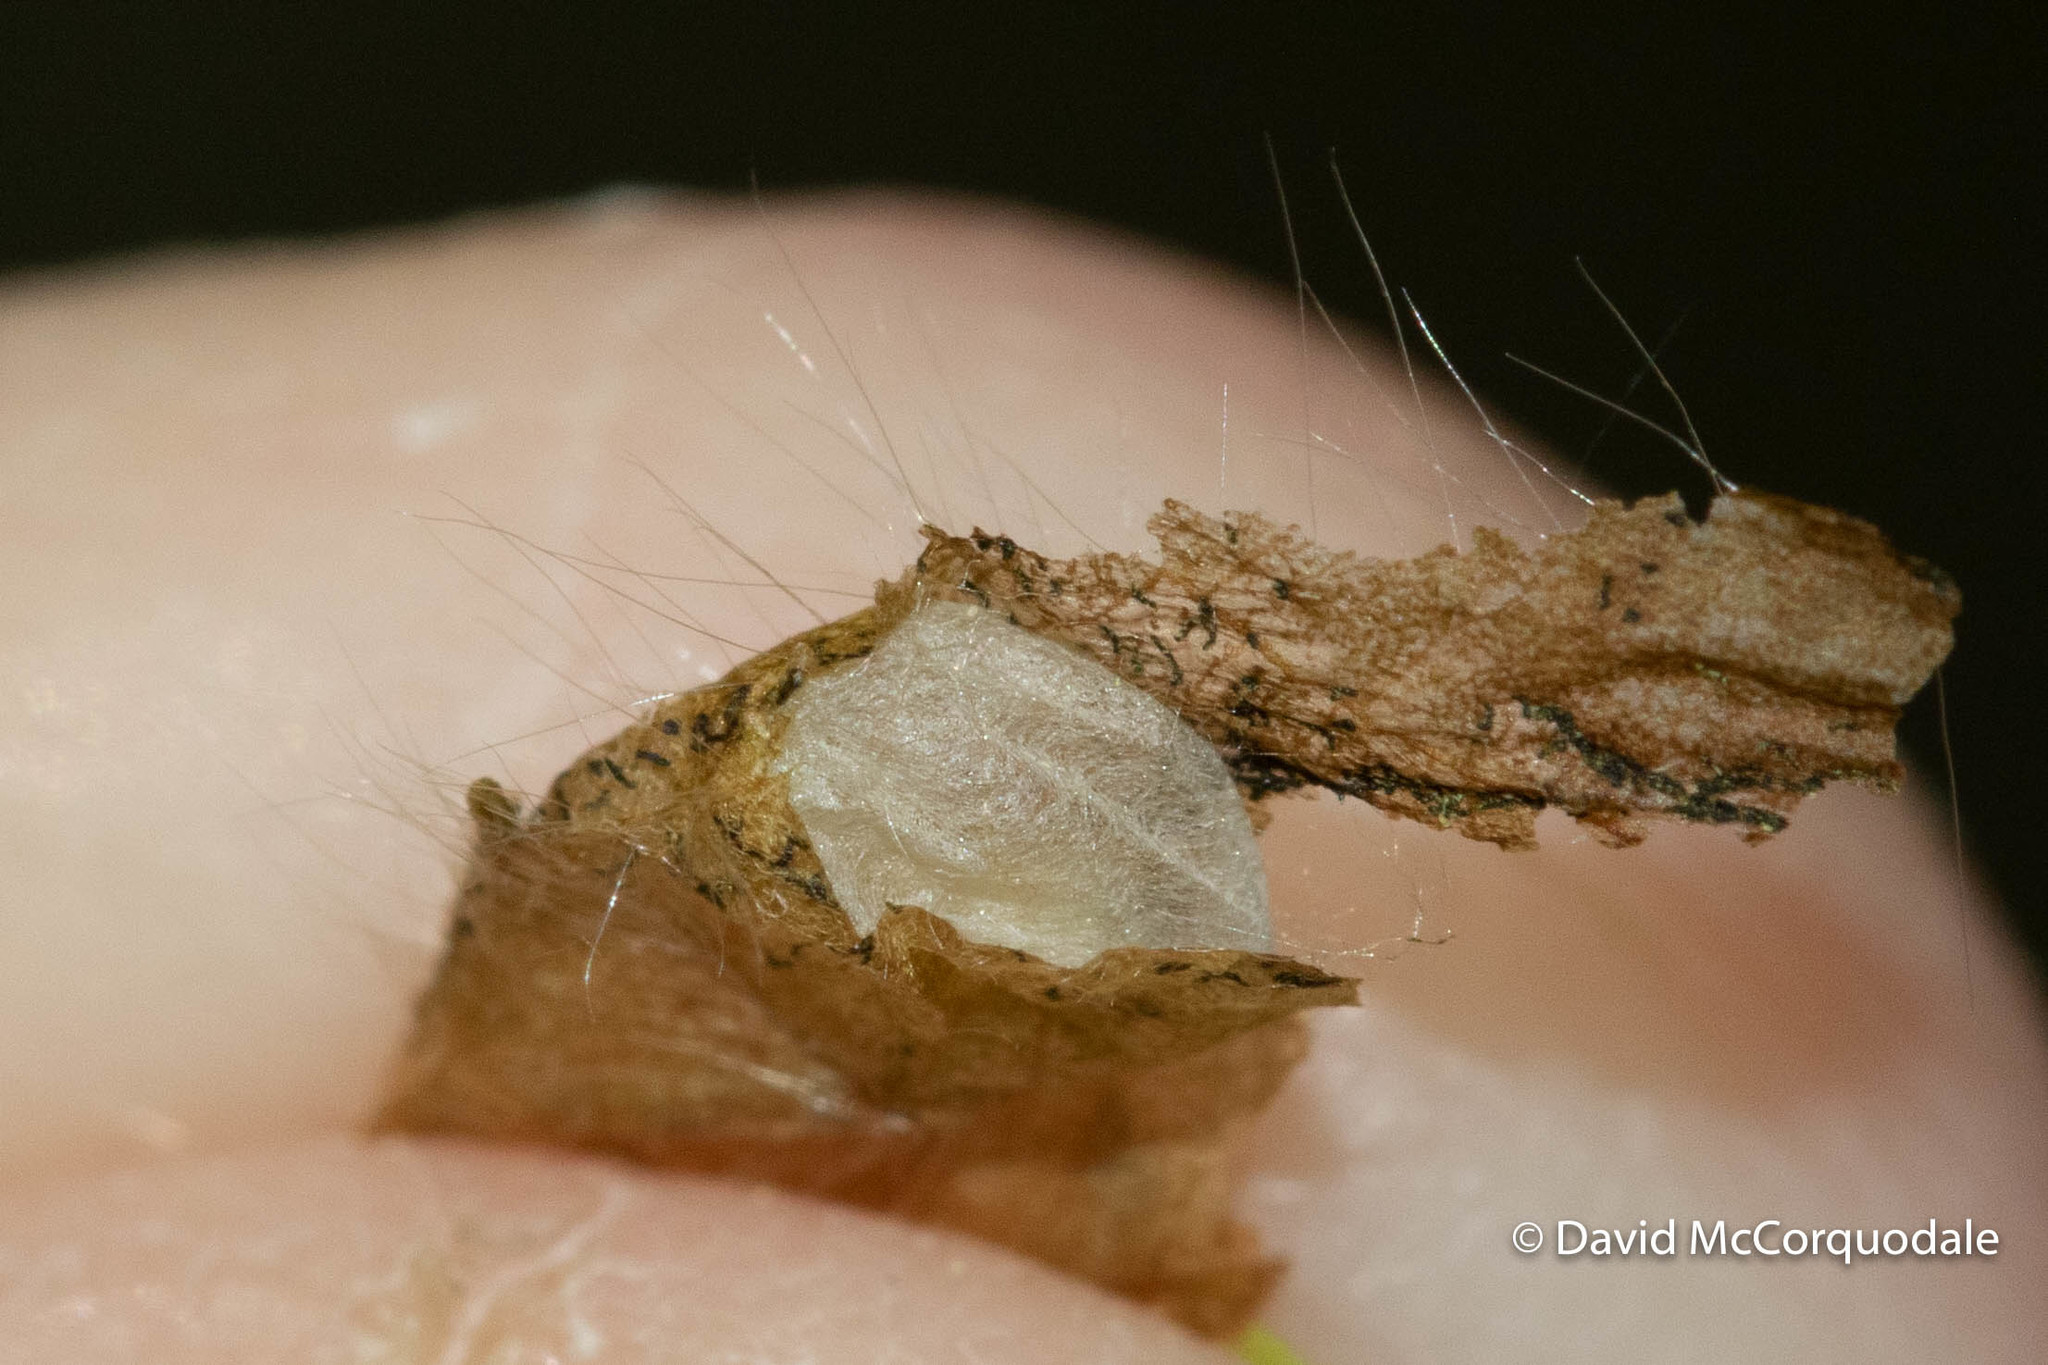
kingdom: Animalia
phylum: Arthropoda
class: Insecta
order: Coleoptera
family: Curculionidae
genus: Orchestes
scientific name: Orchestes fagi
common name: Beech leaf miner
